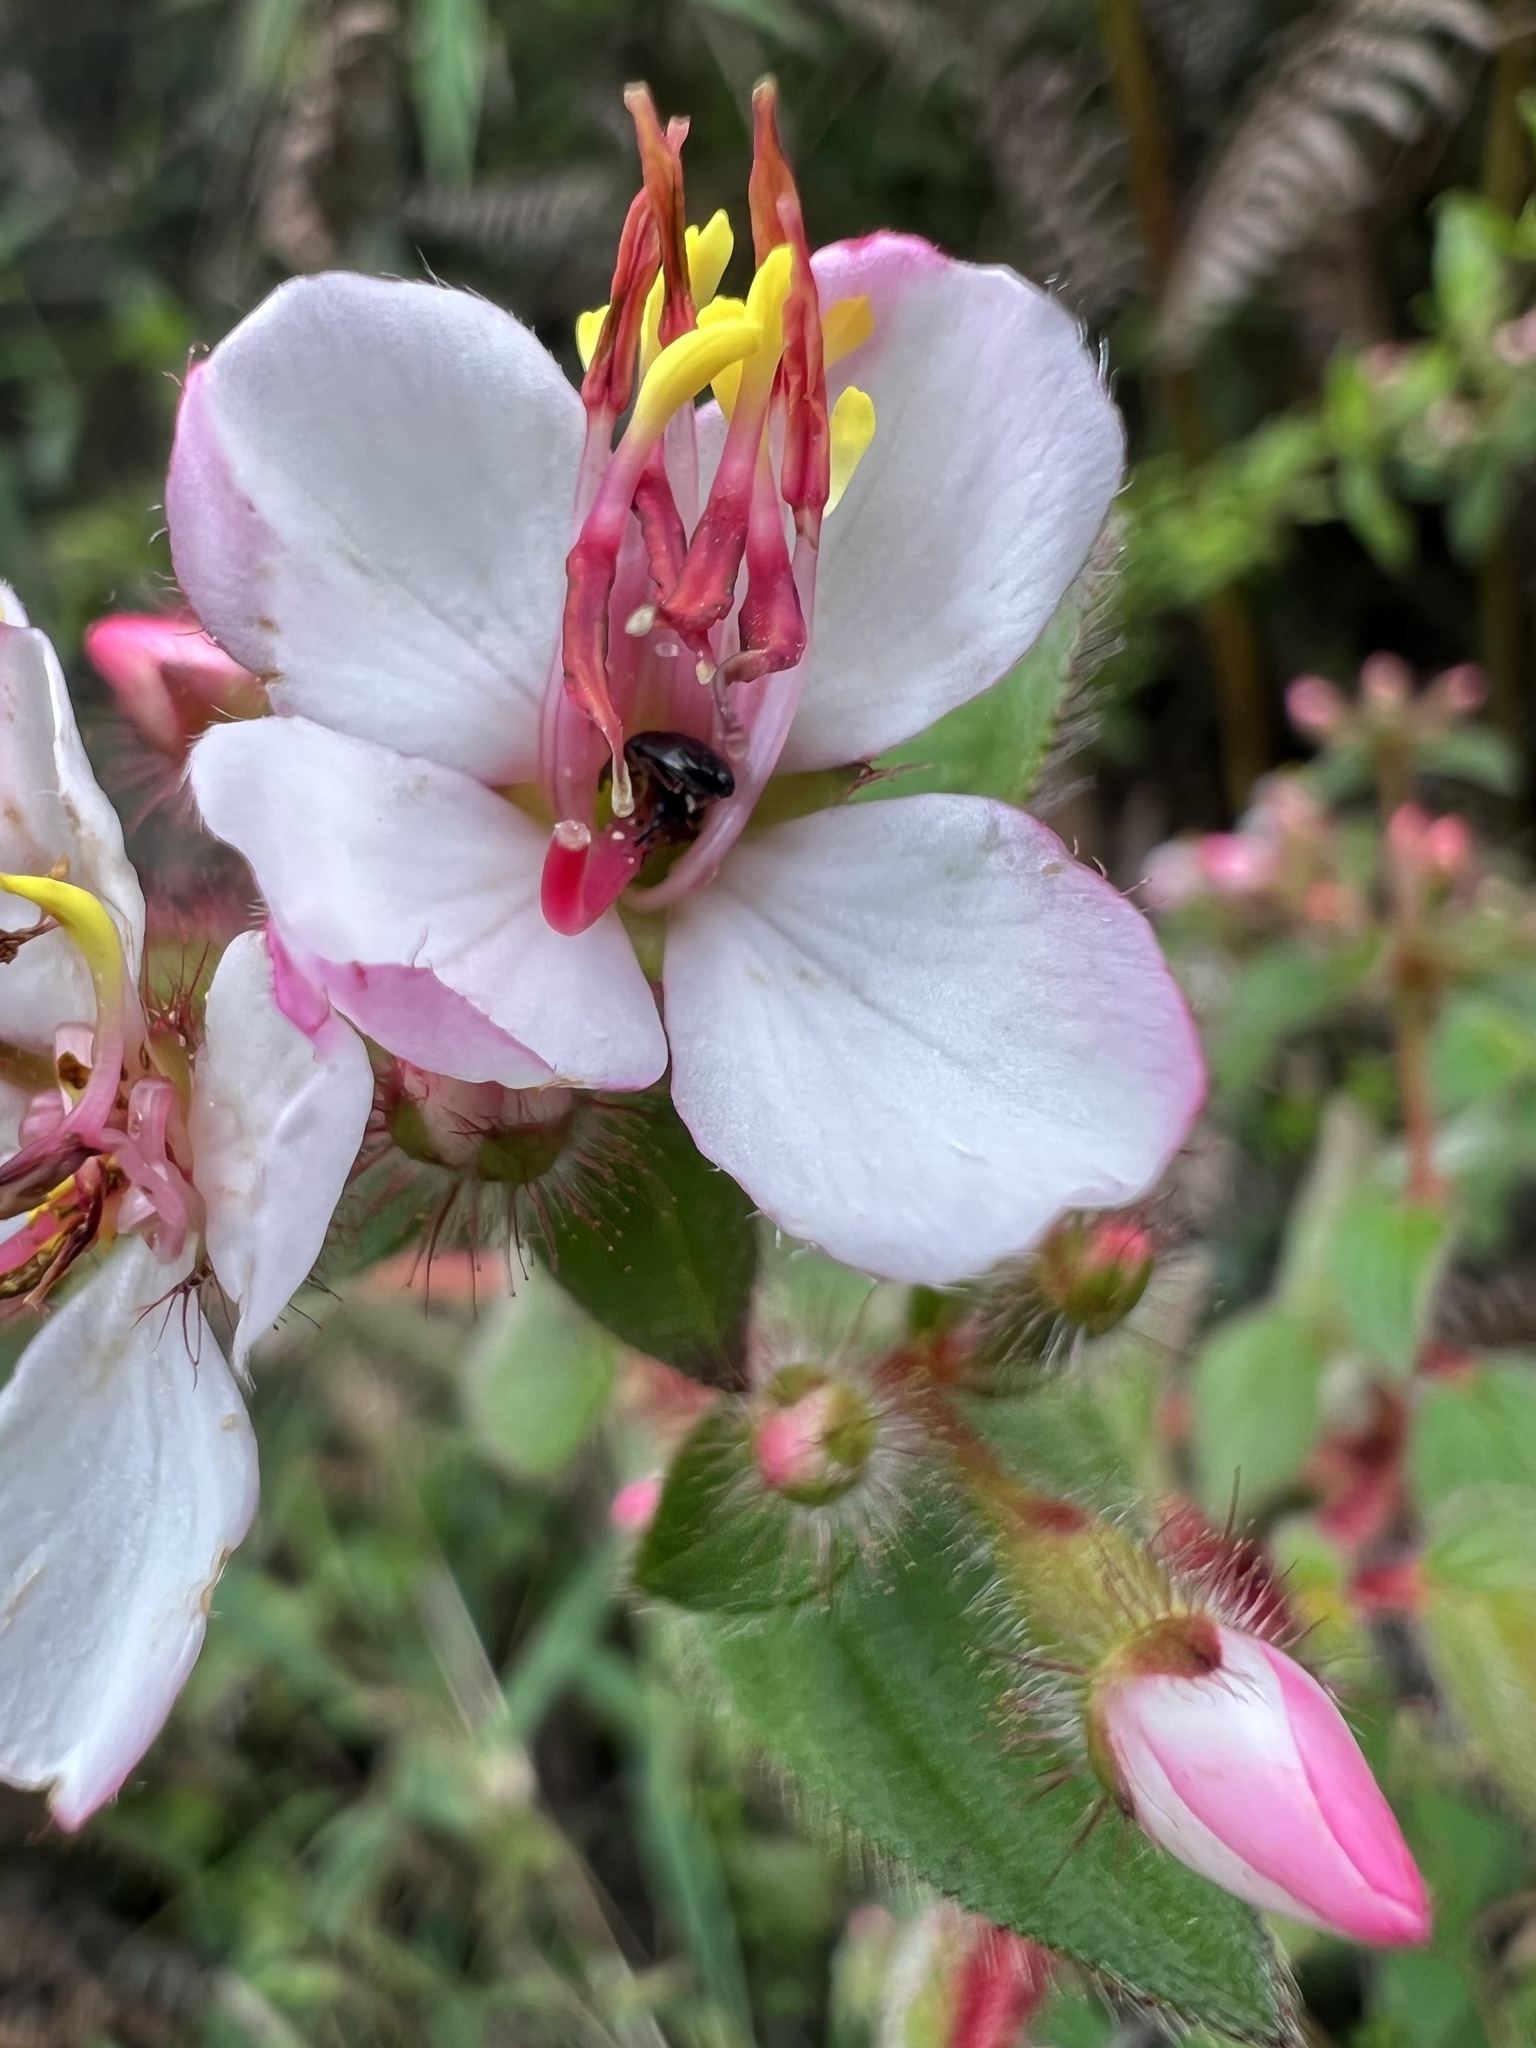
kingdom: Plantae
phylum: Tracheophyta
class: Magnoliopsida
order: Myrtales
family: Melastomataceae
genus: Monochaetum
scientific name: Monochaetum glanduliferum
